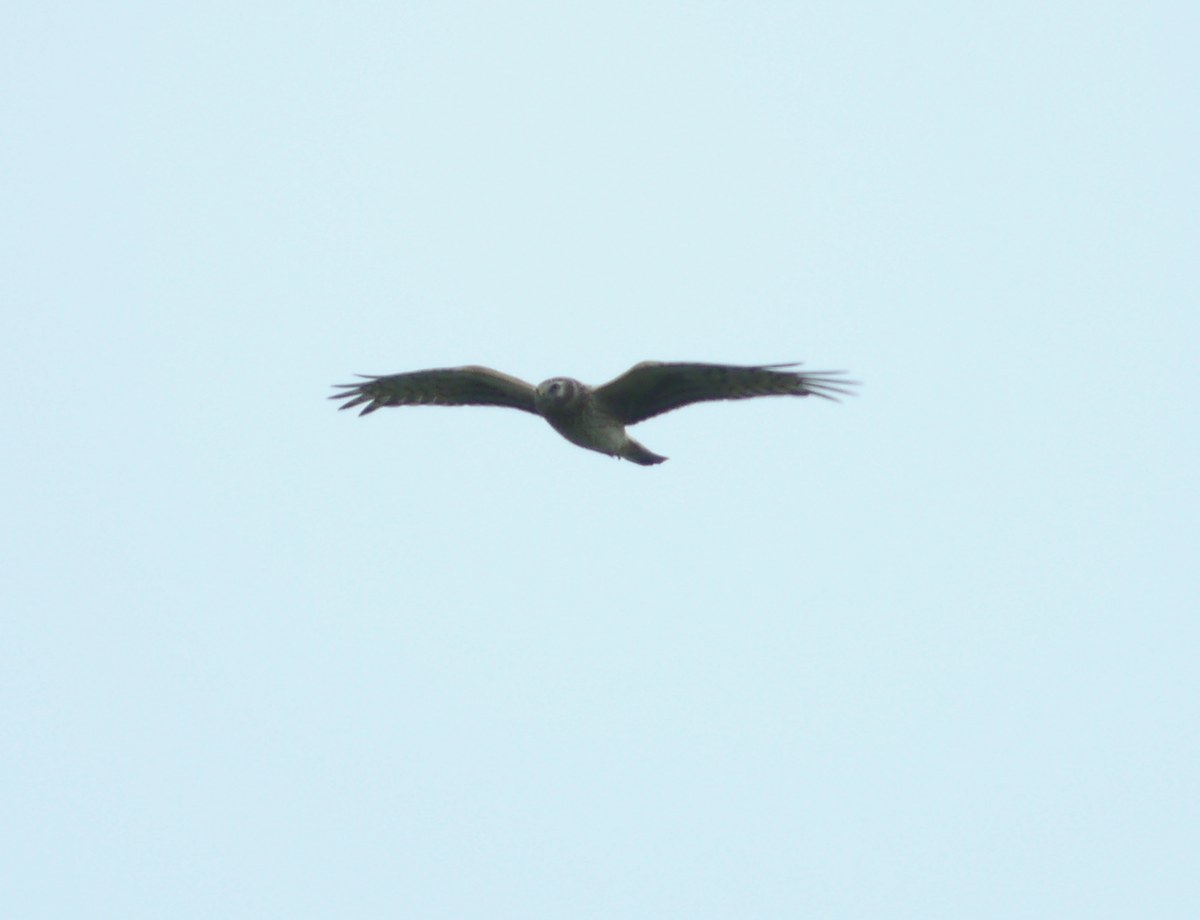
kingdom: Animalia
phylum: Chordata
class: Aves
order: Accipitriformes
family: Accipitridae
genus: Circus
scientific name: Circus cyaneus
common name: Hen harrier
